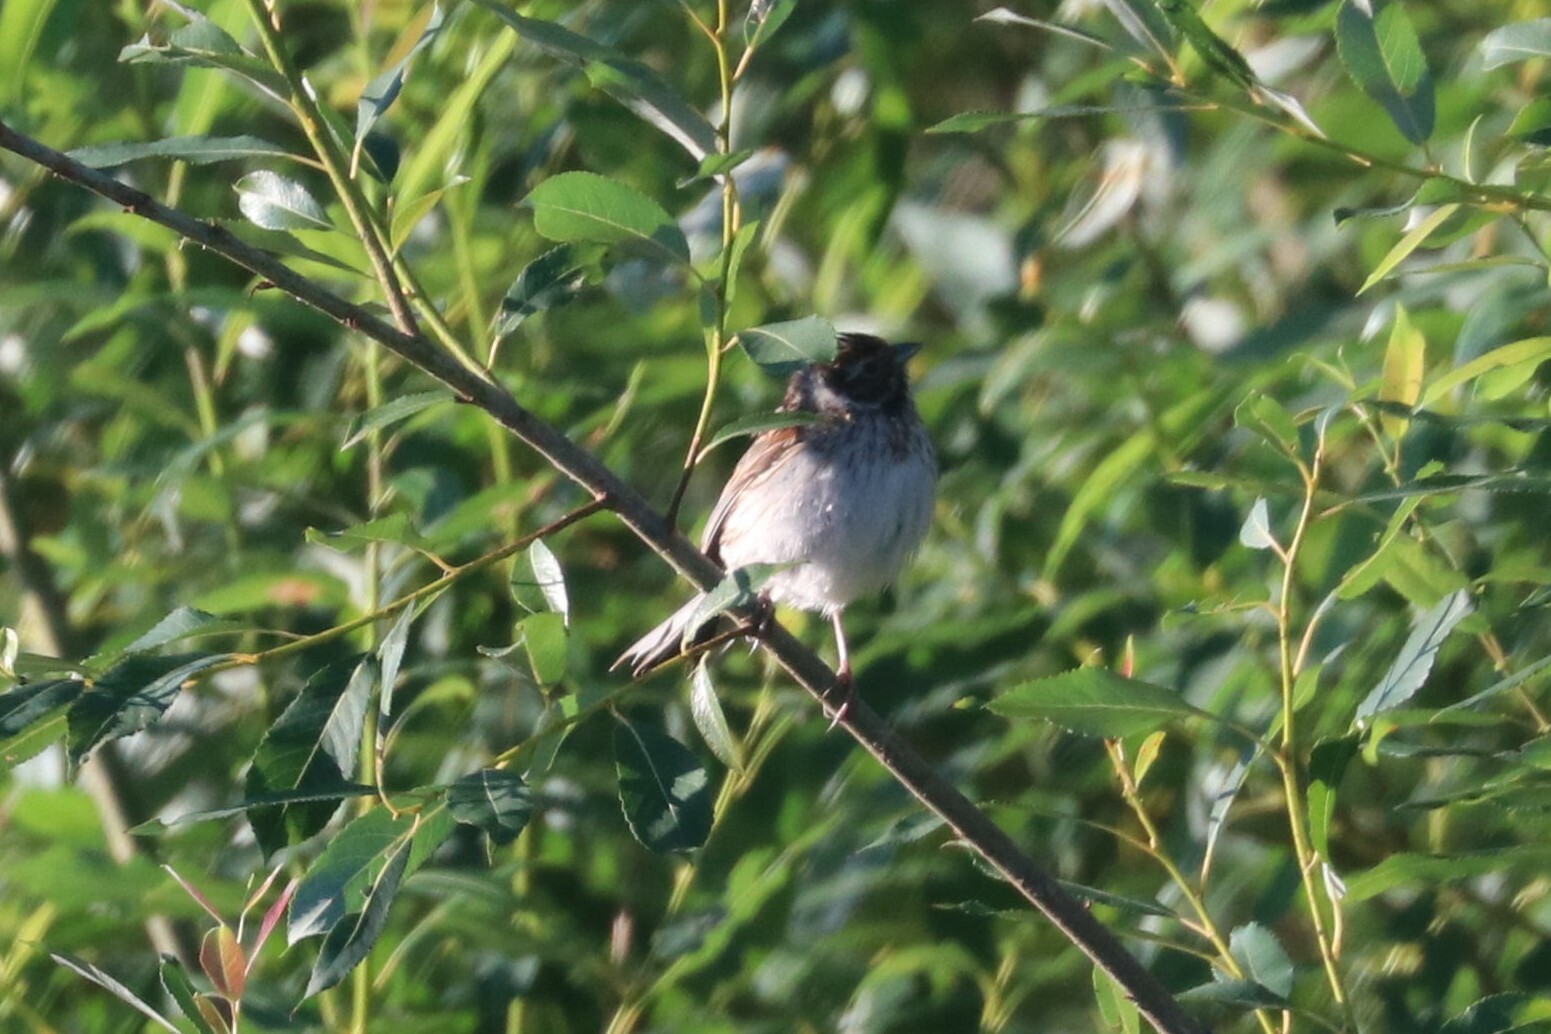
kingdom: Animalia
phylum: Chordata
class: Aves
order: Passeriformes
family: Emberizidae
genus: Emberiza
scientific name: Emberiza schoeniclus
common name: Reed bunting
